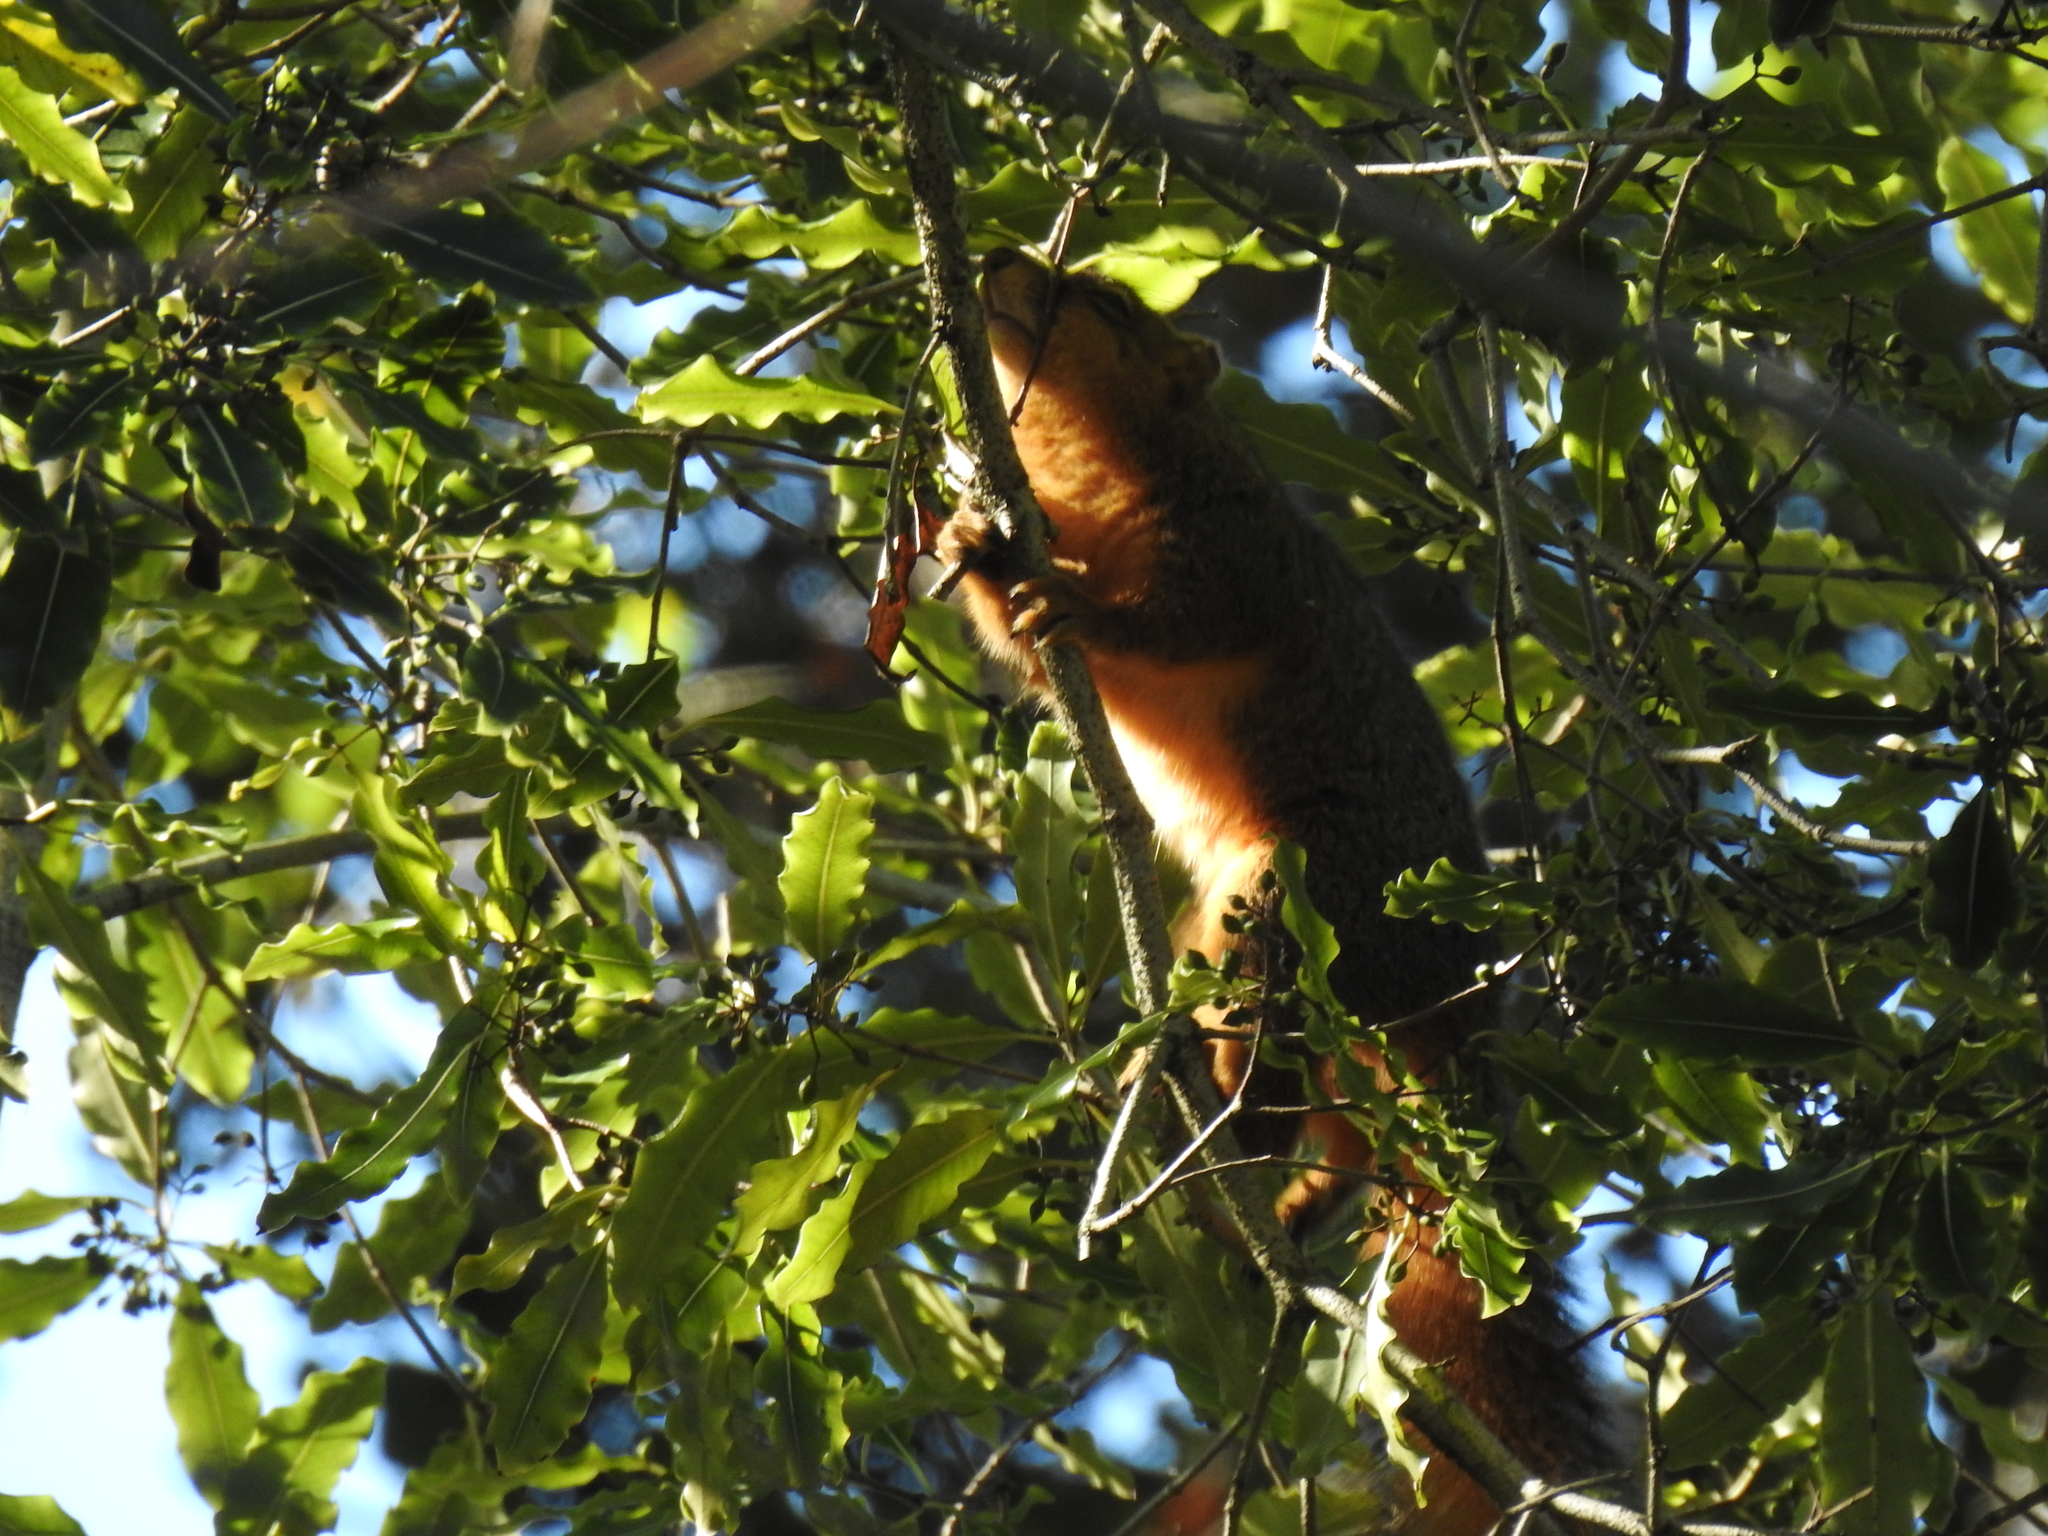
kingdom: Animalia
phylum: Chordata
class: Mammalia
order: Rodentia
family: Sciuridae
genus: Sciurus
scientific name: Sciurus niger
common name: Fox squirrel
